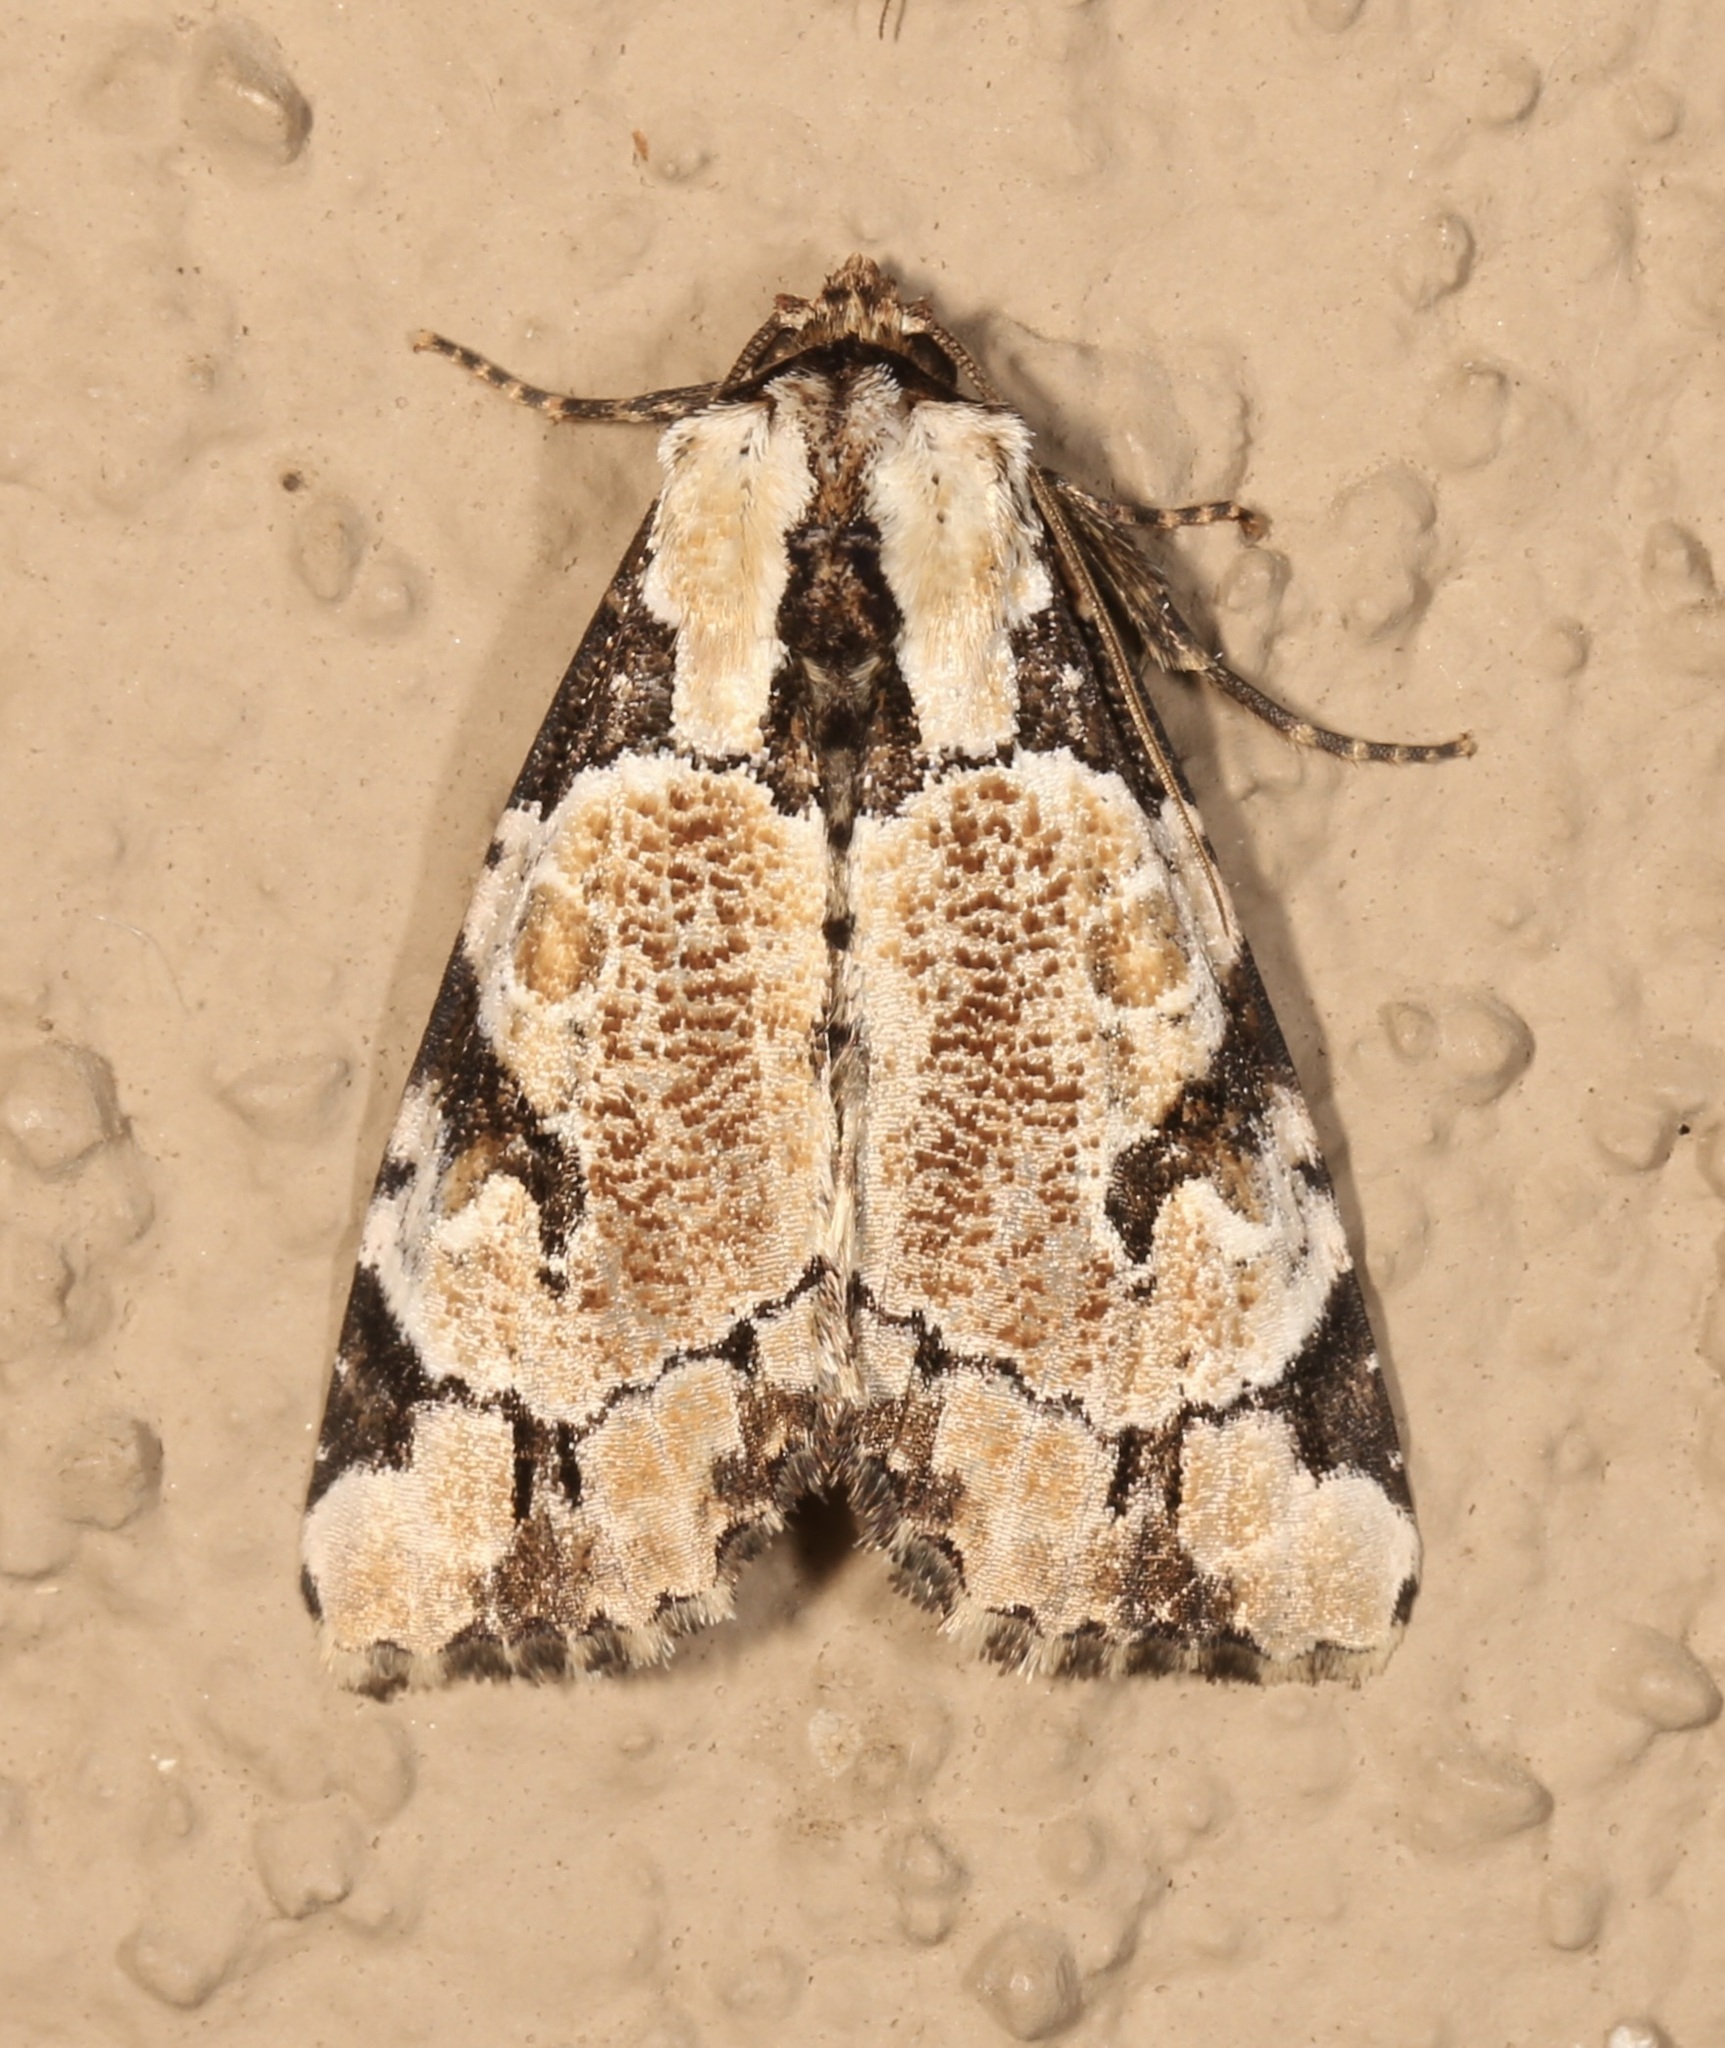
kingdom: Animalia
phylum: Arthropoda
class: Insecta
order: Lepidoptera
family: Noctuidae
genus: Stibaera
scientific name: Stibaera thyatiroides
